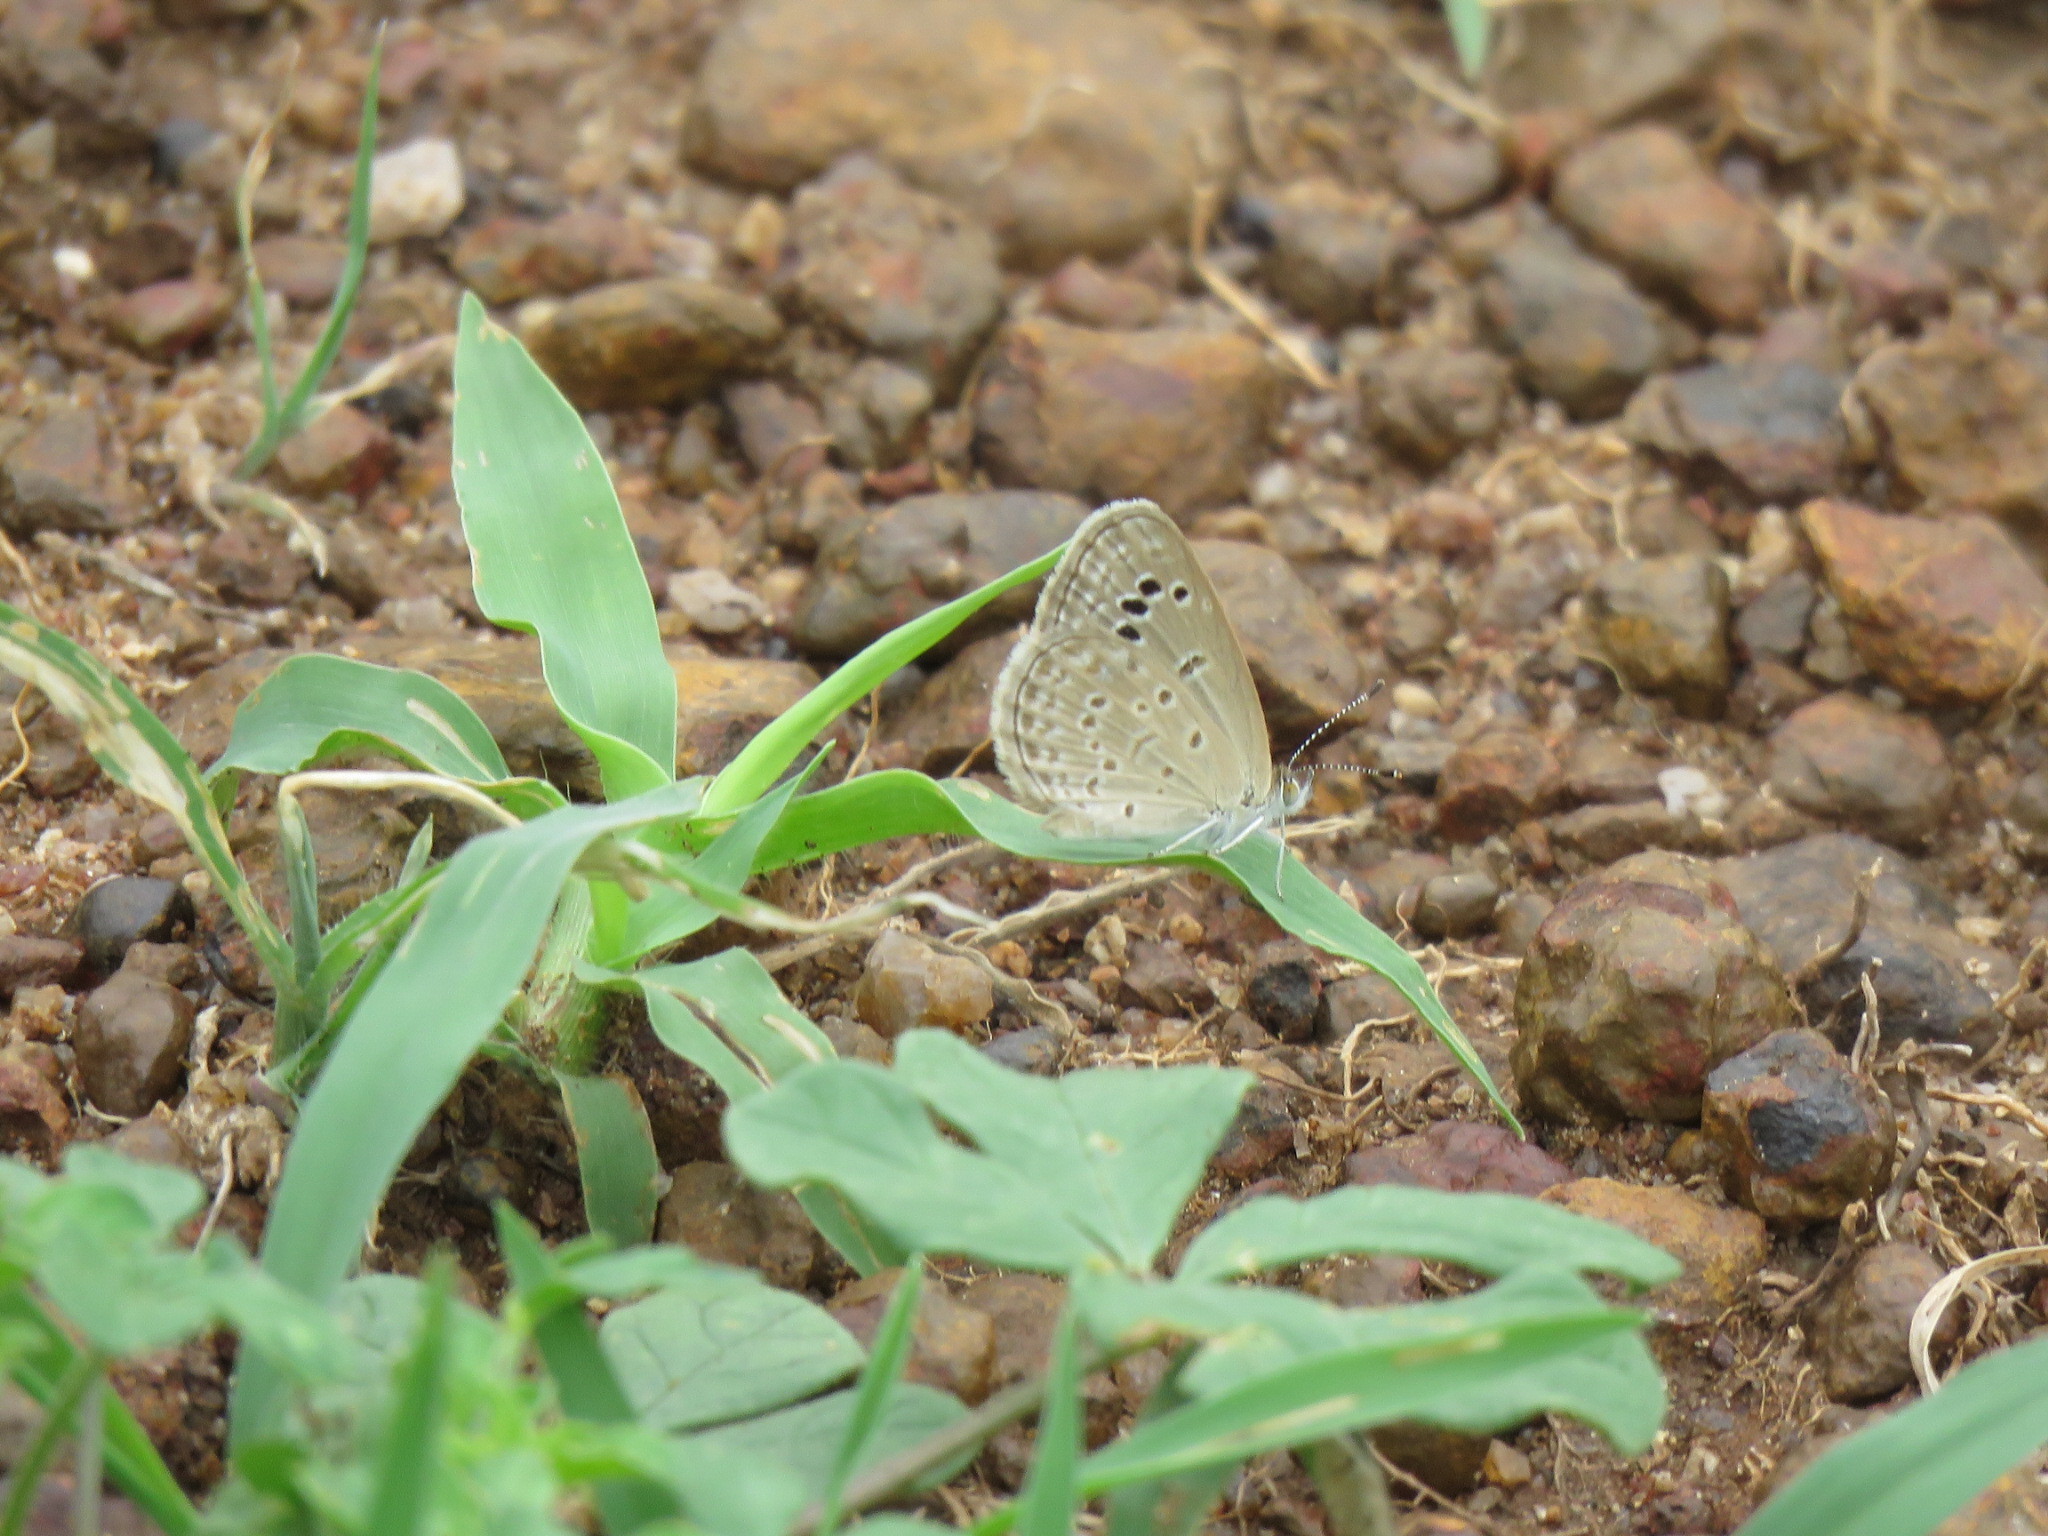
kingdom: Animalia
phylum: Arthropoda
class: Insecta
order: Lepidoptera
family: Lycaenidae
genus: Zizina
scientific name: Zizina otis
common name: Lesser grass blue
